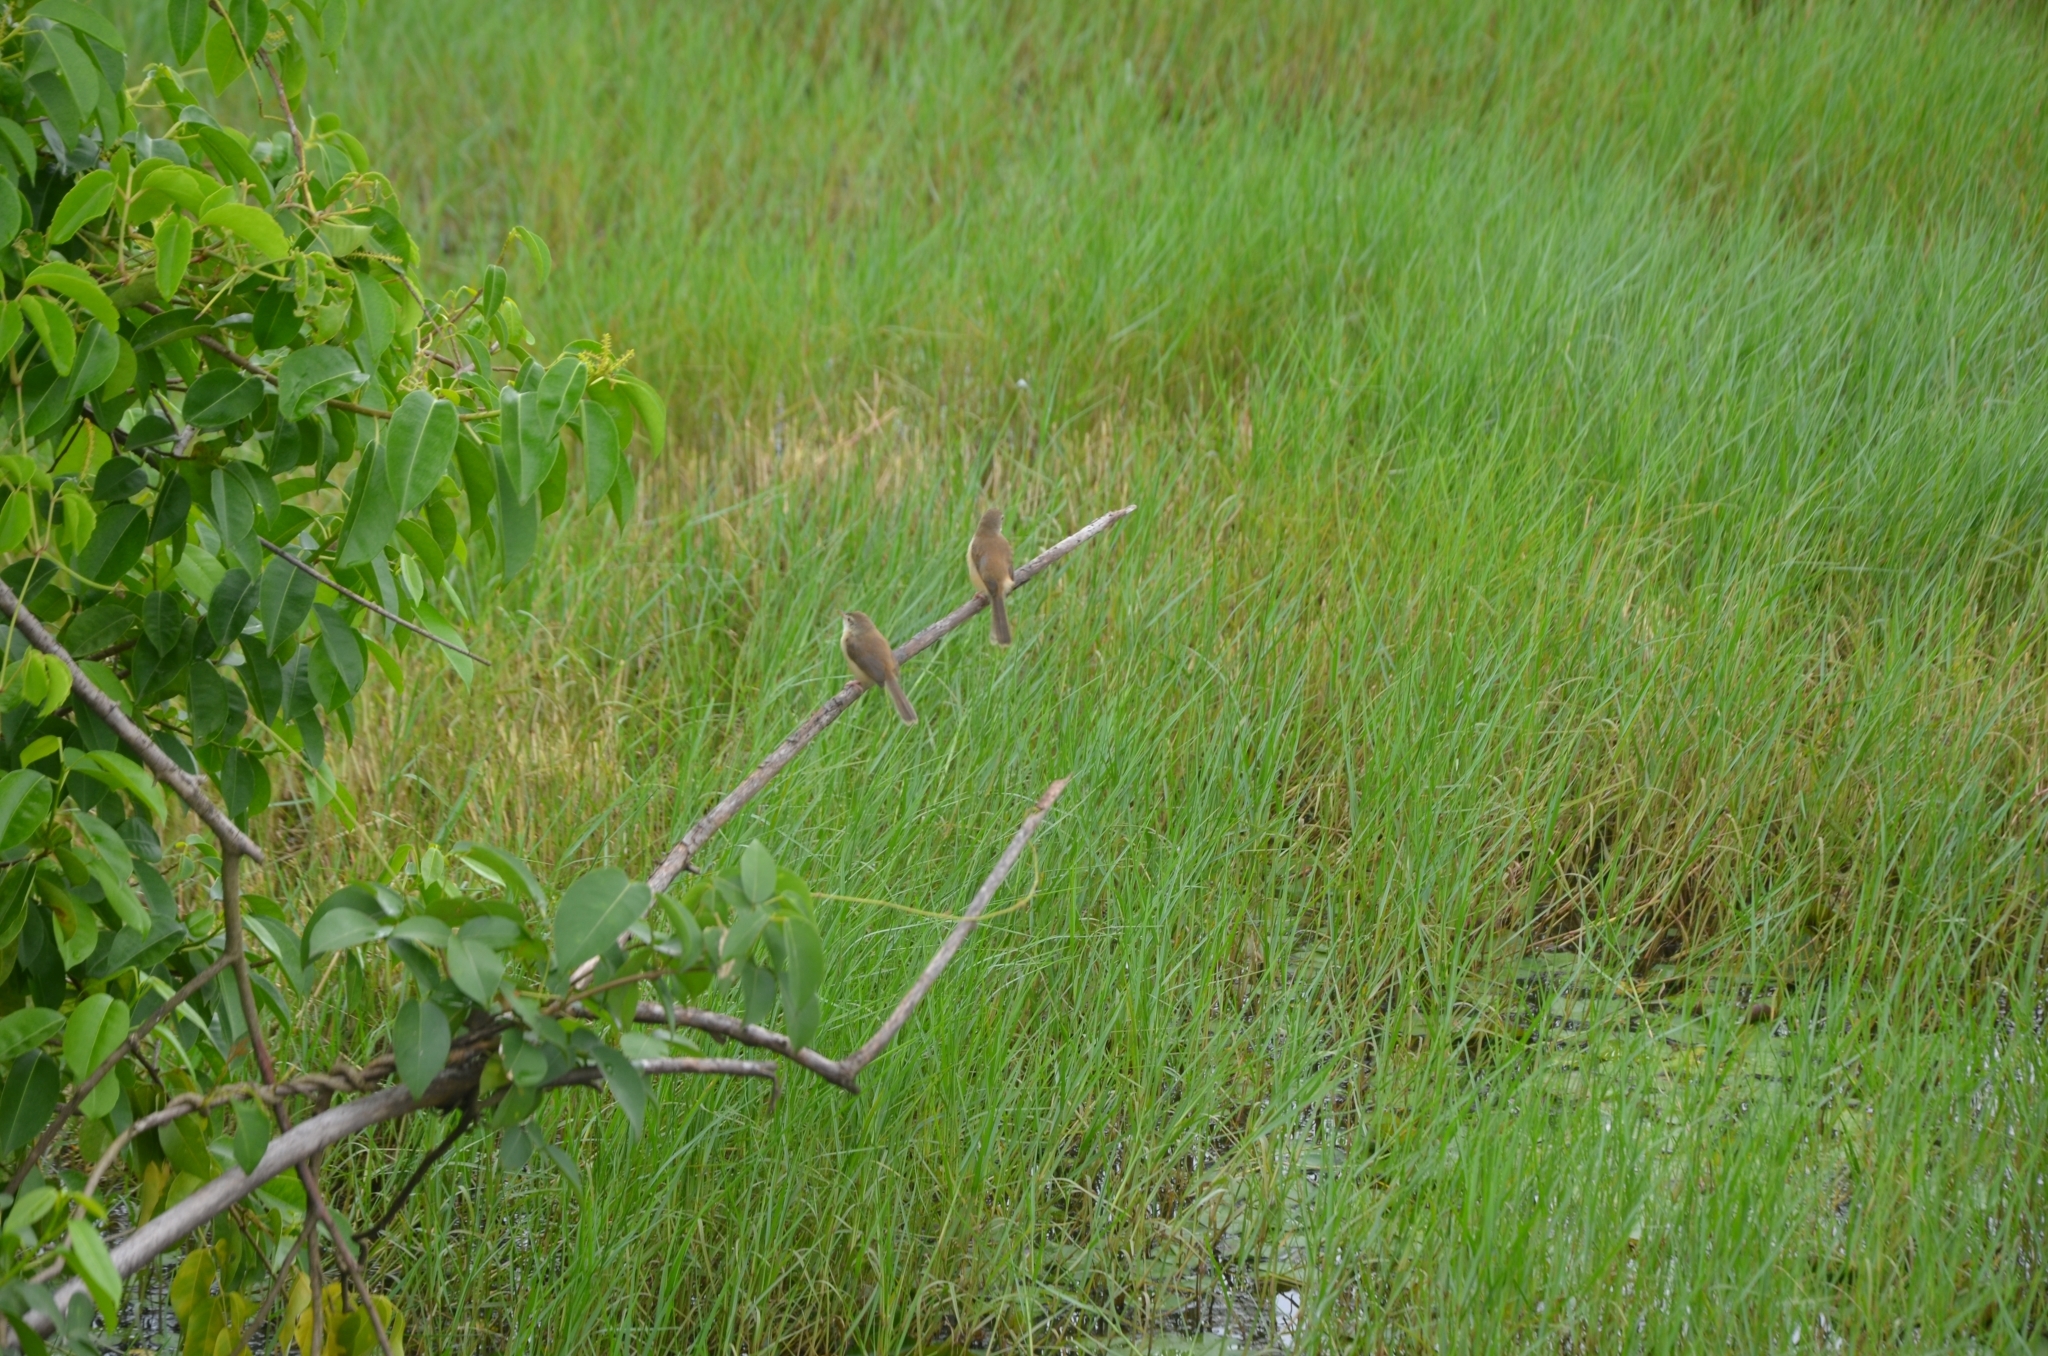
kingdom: Animalia
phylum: Chordata
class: Aves
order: Passeriformes
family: Cisticolidae
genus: Prinia
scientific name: Prinia inornata
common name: Plain prinia
